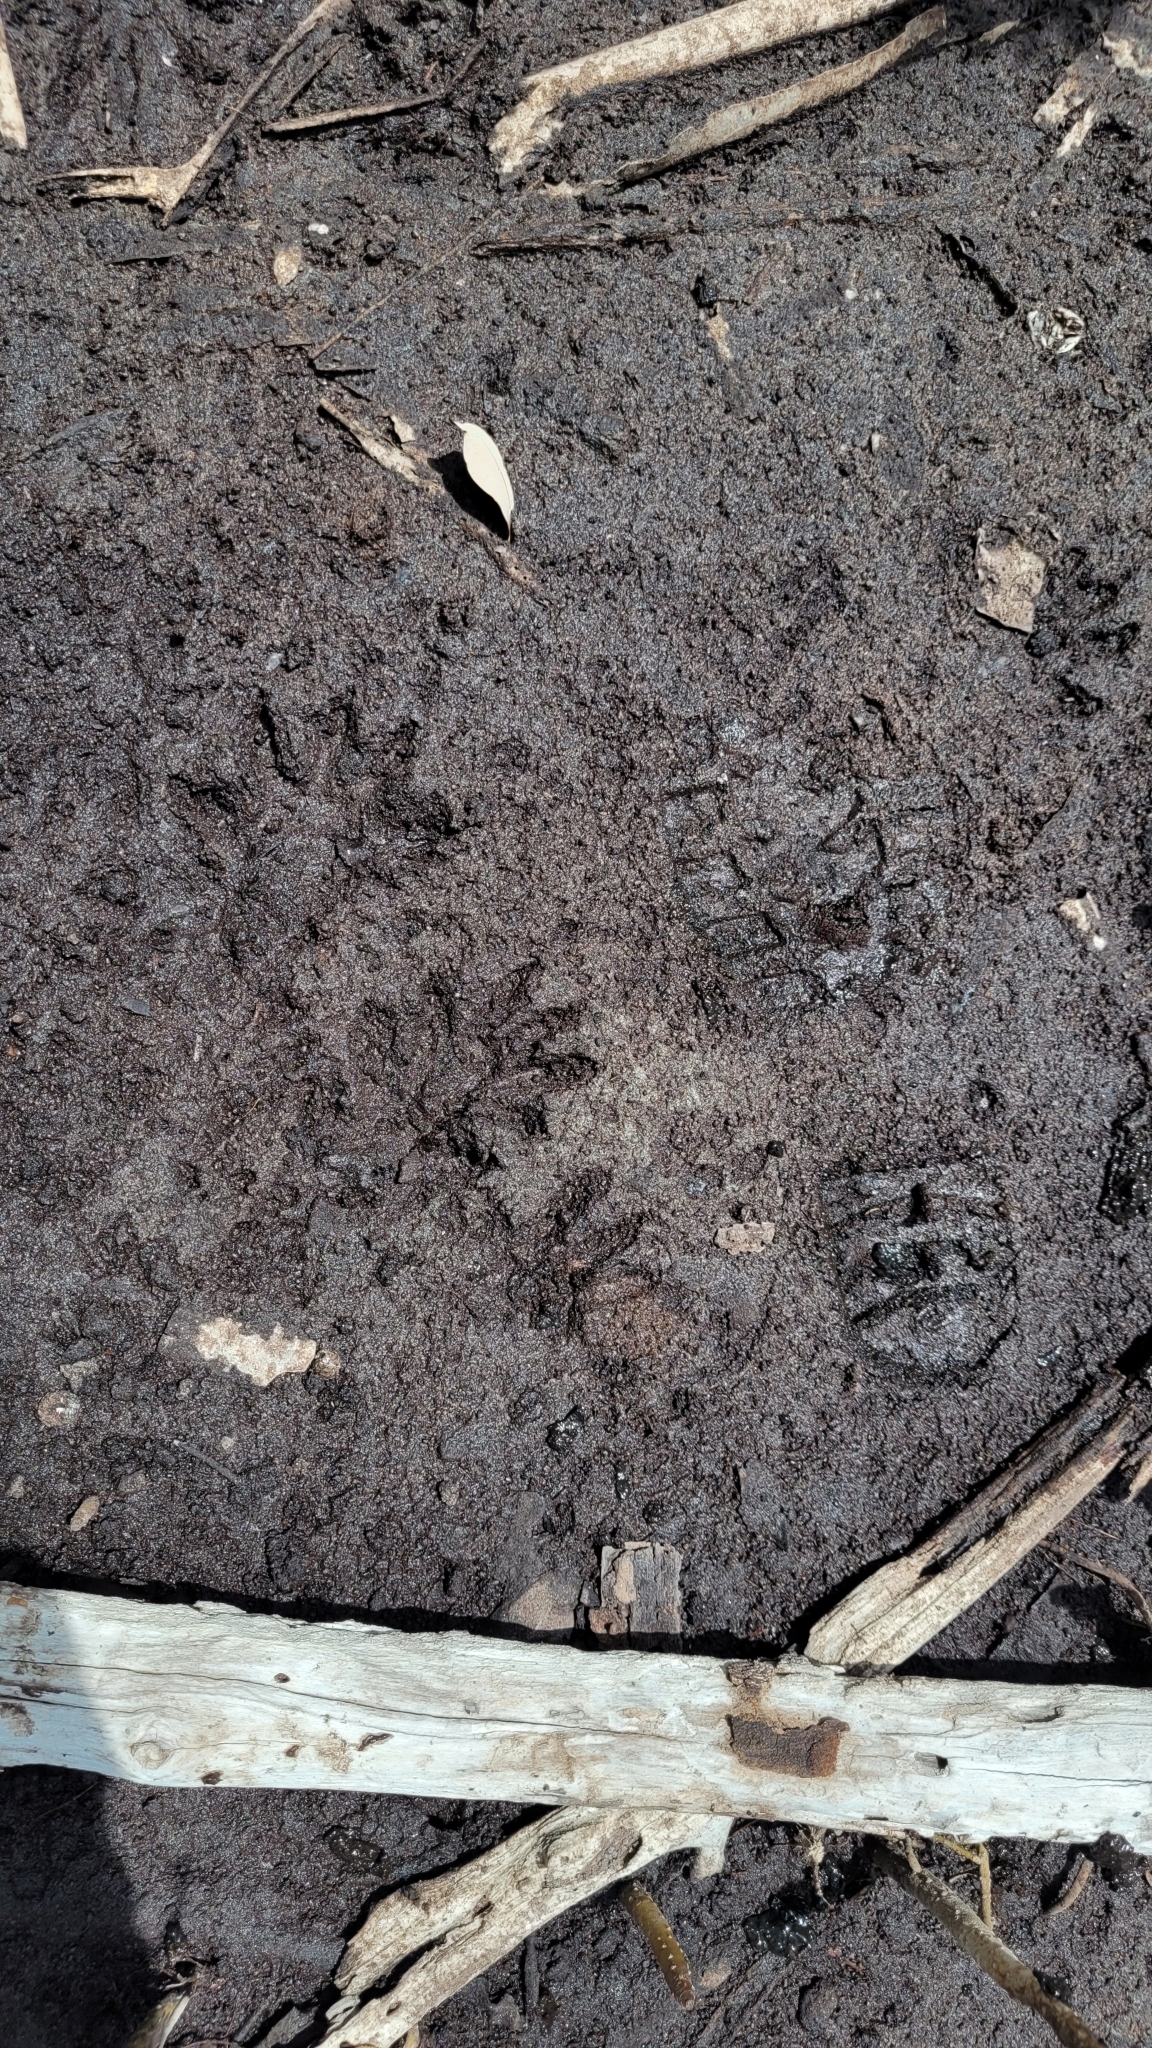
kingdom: Animalia
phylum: Chordata
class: Mammalia
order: Carnivora
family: Procyonidae
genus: Procyon
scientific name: Procyon lotor
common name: Raccoon
